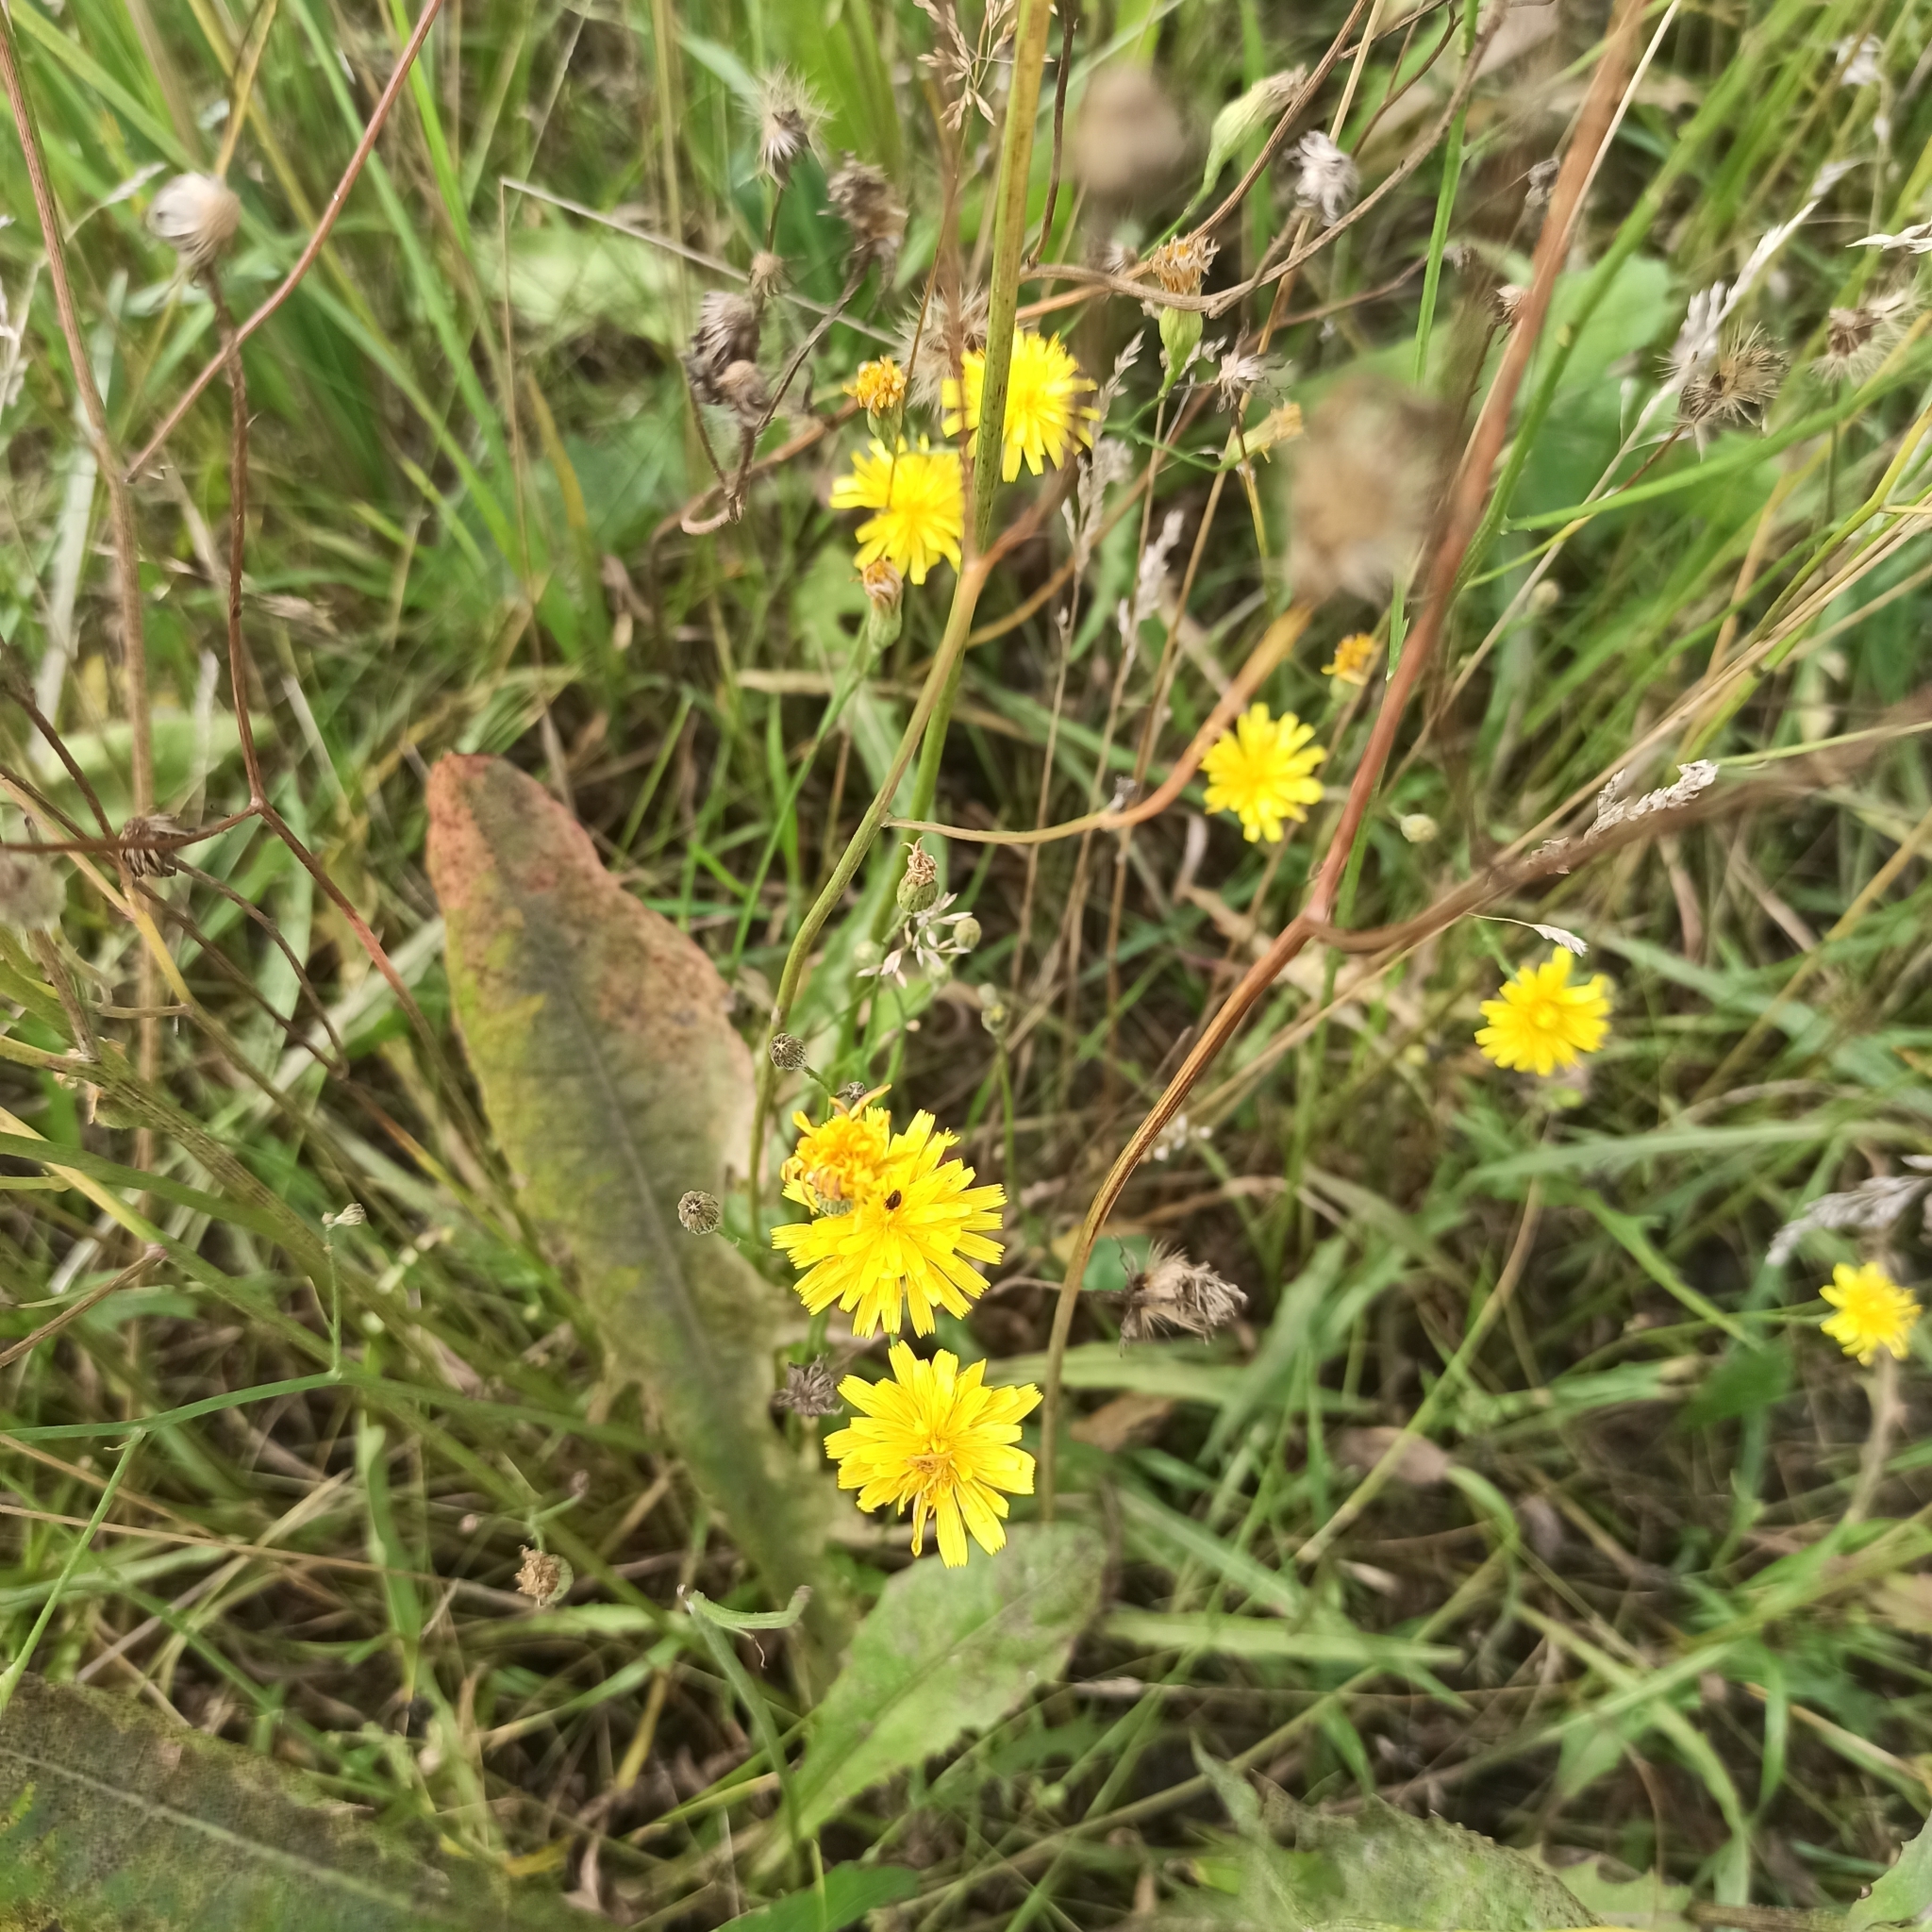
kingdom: Plantae
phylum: Tracheophyta
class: Magnoliopsida
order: Asterales
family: Asteraceae
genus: Scorzoneroides
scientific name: Scorzoneroides autumnalis
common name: Autumn hawkbit
